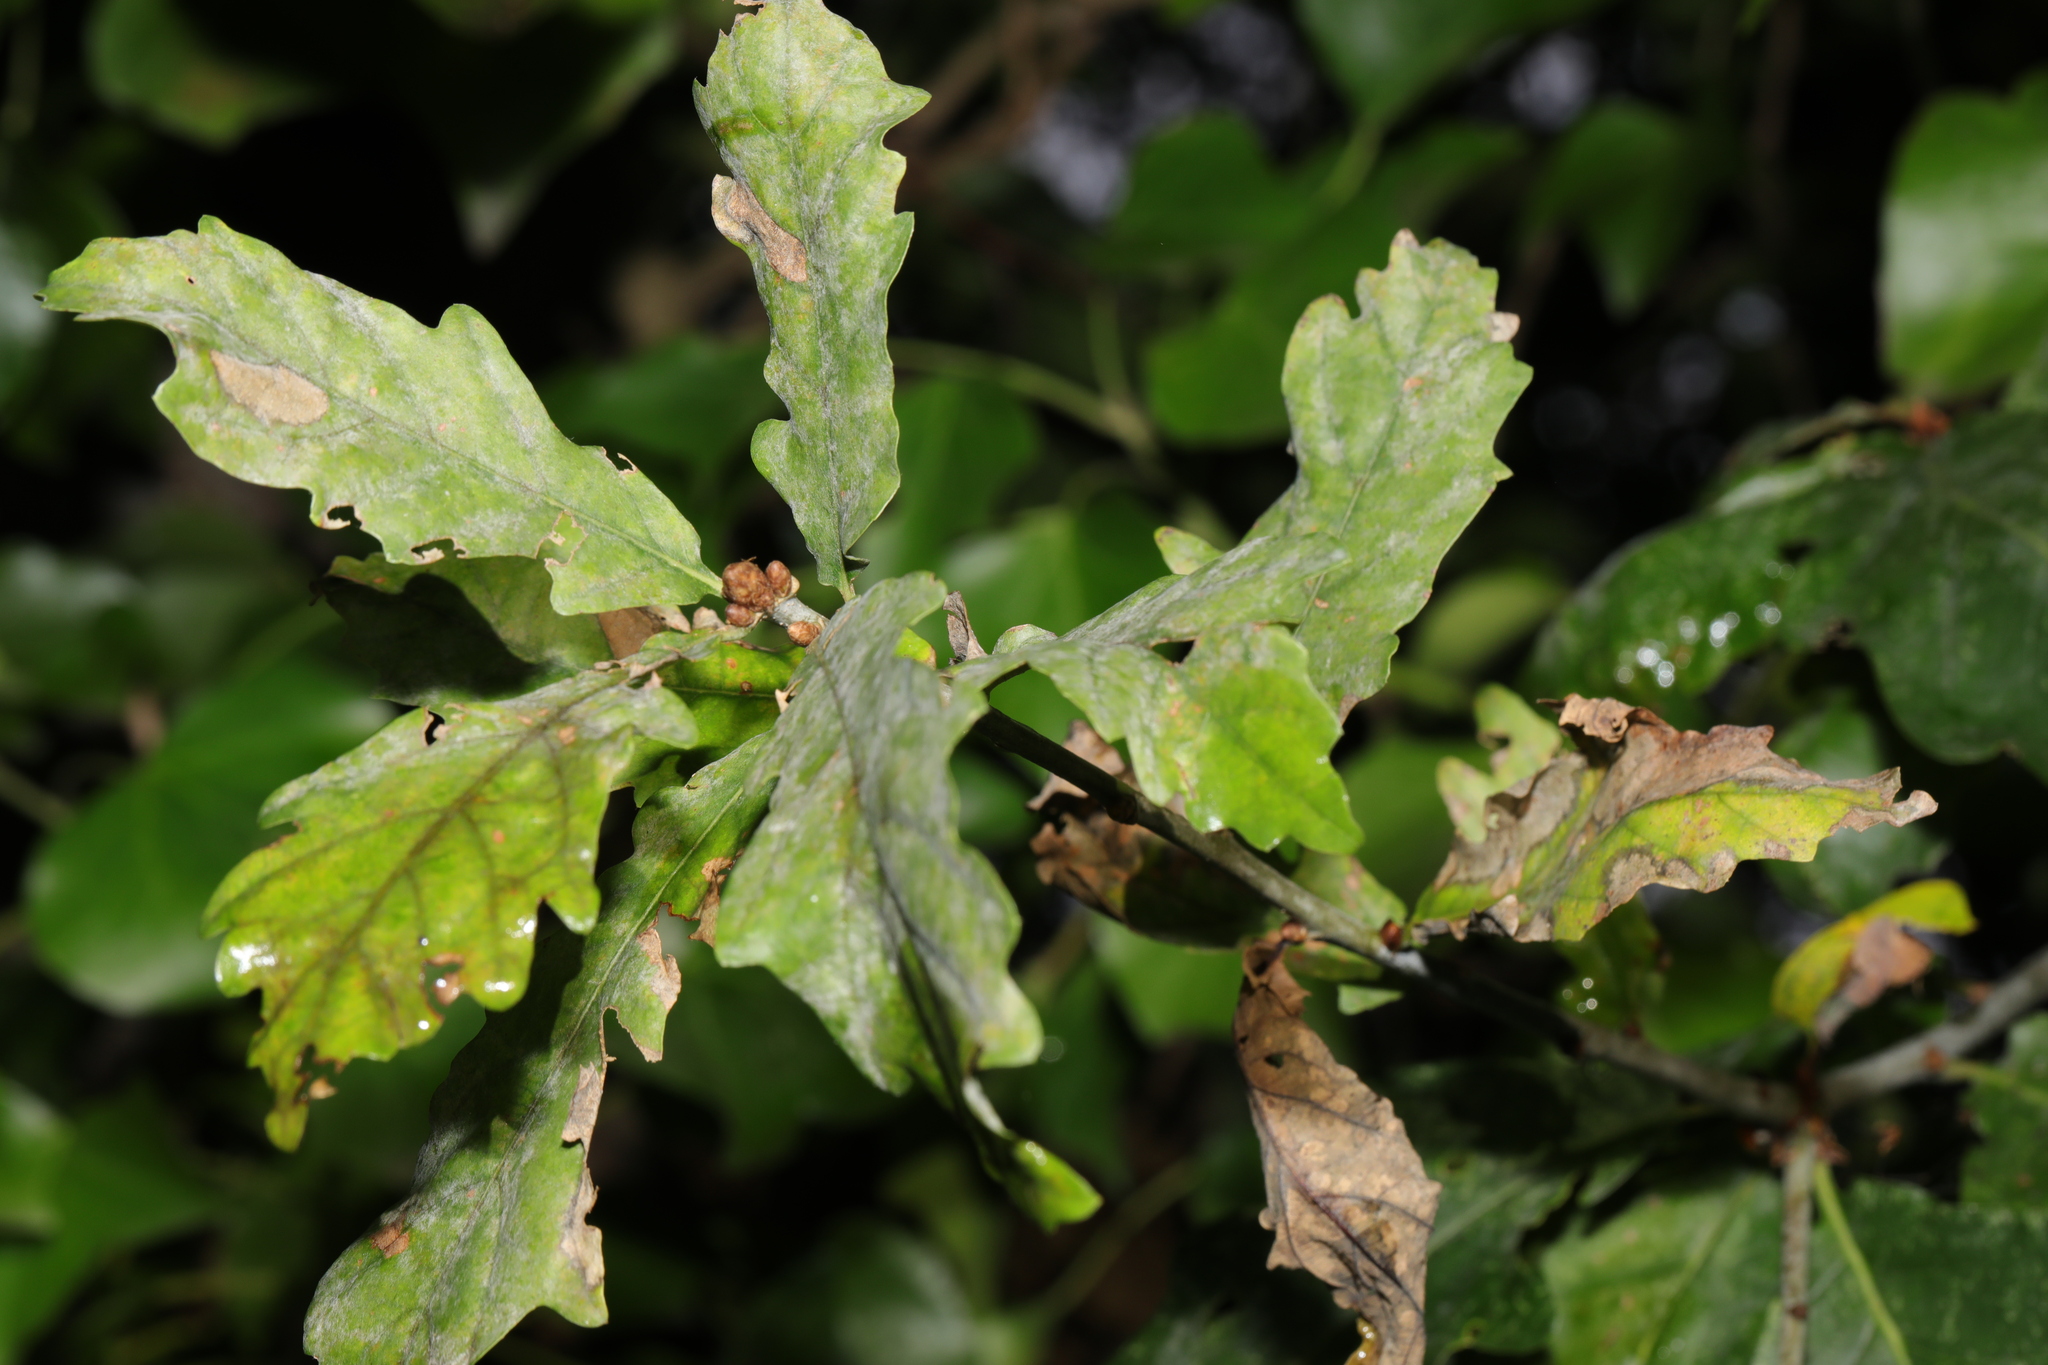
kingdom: Fungi
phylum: Ascomycota
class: Leotiomycetes
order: Helotiales
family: Erysiphaceae
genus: Erysiphe
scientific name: Erysiphe alphitoides
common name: Oak mildew
